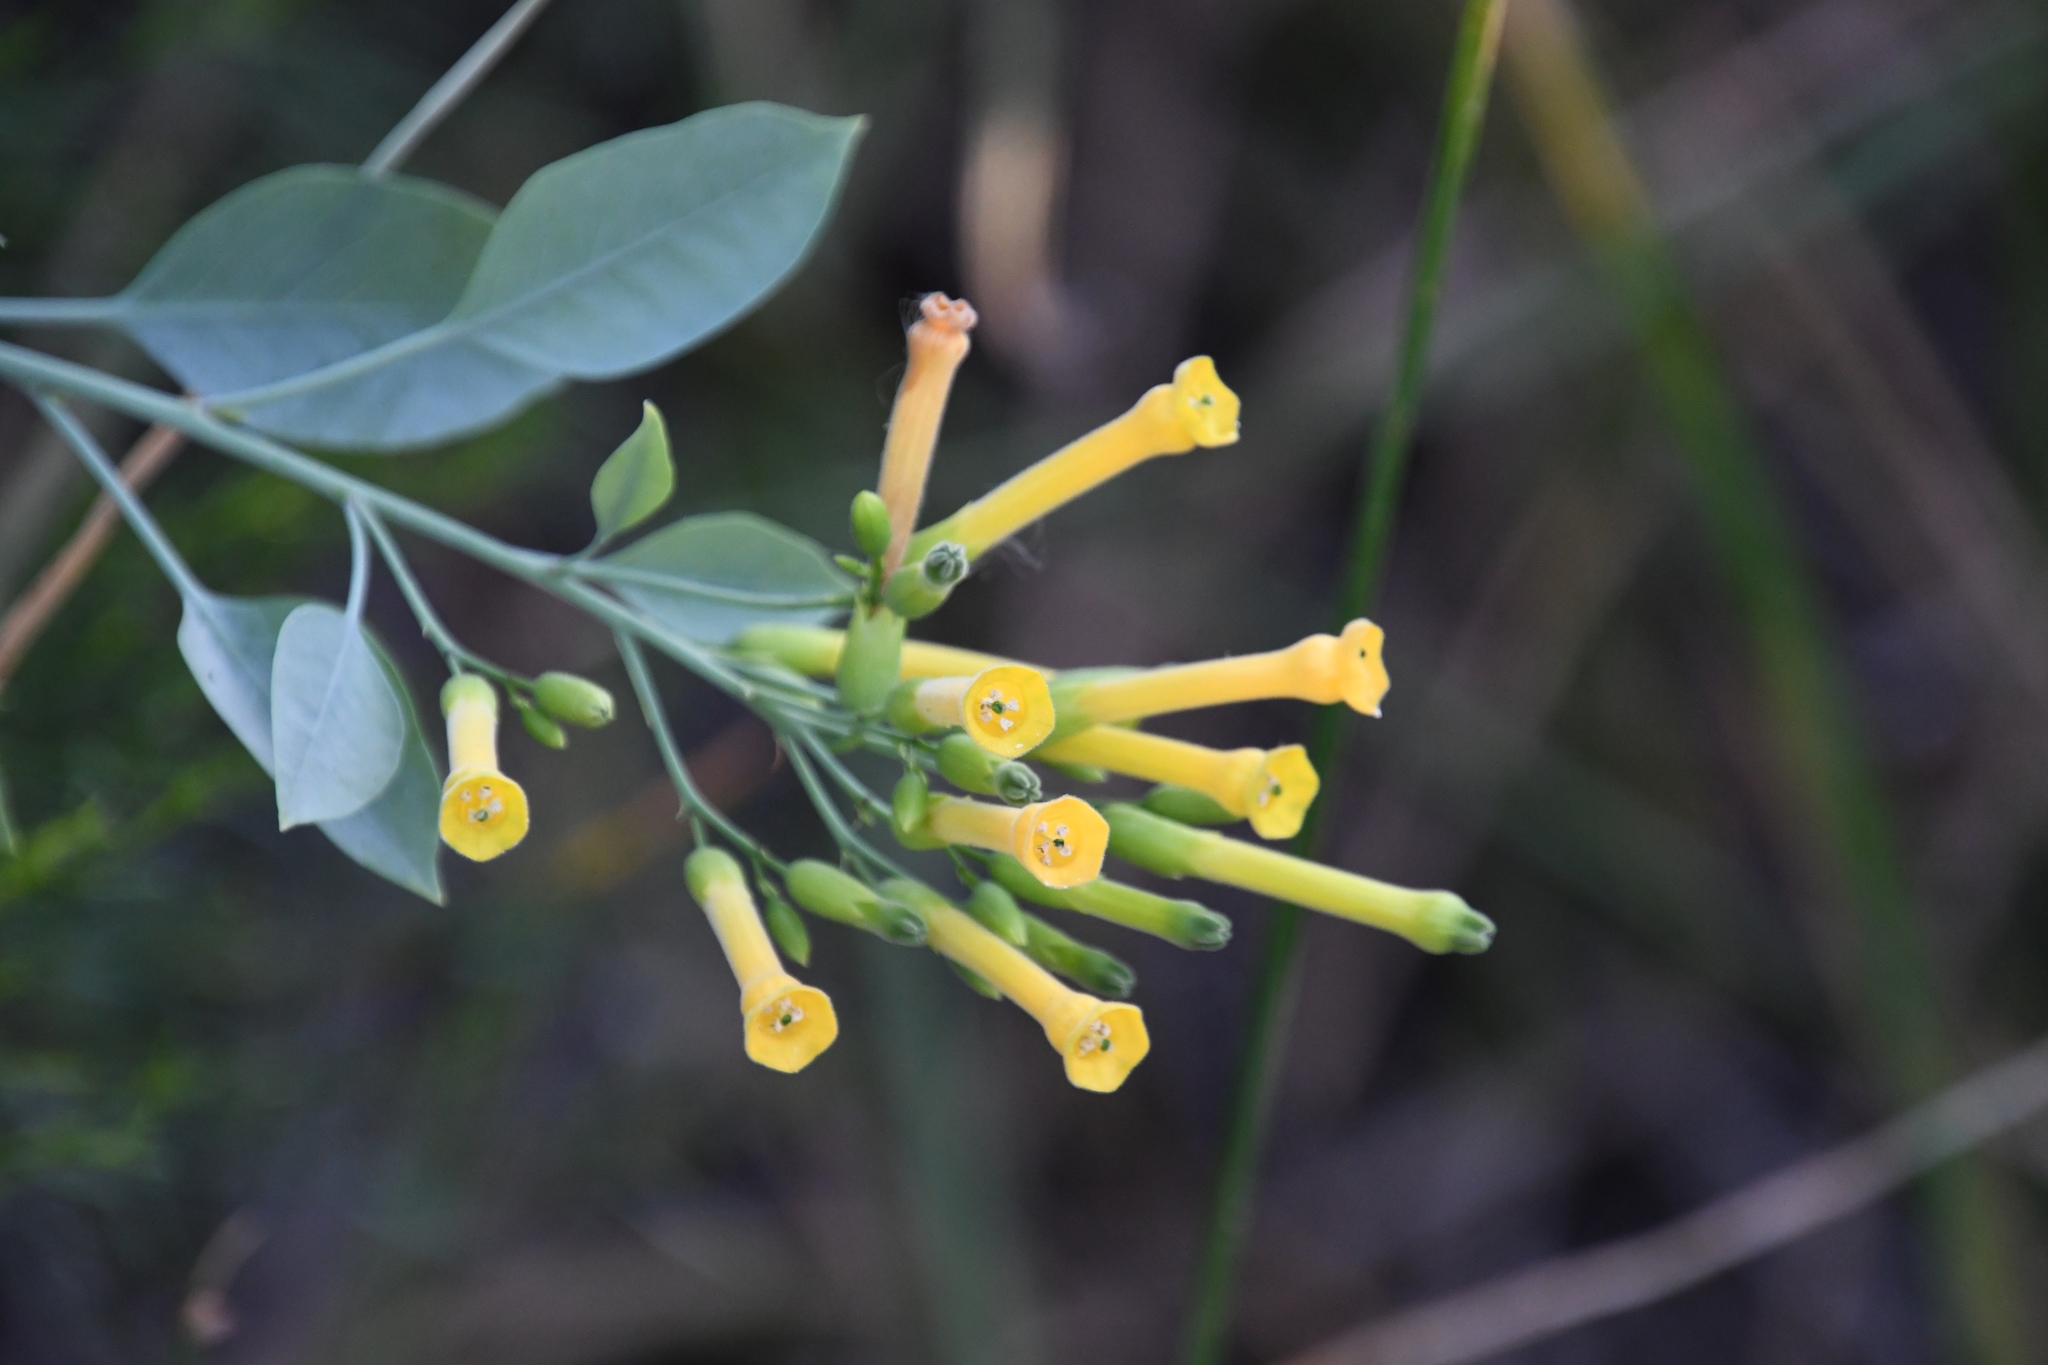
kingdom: Plantae
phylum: Tracheophyta
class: Magnoliopsida
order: Solanales
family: Solanaceae
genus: Nicotiana
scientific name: Nicotiana glauca
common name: Tree tobacco
